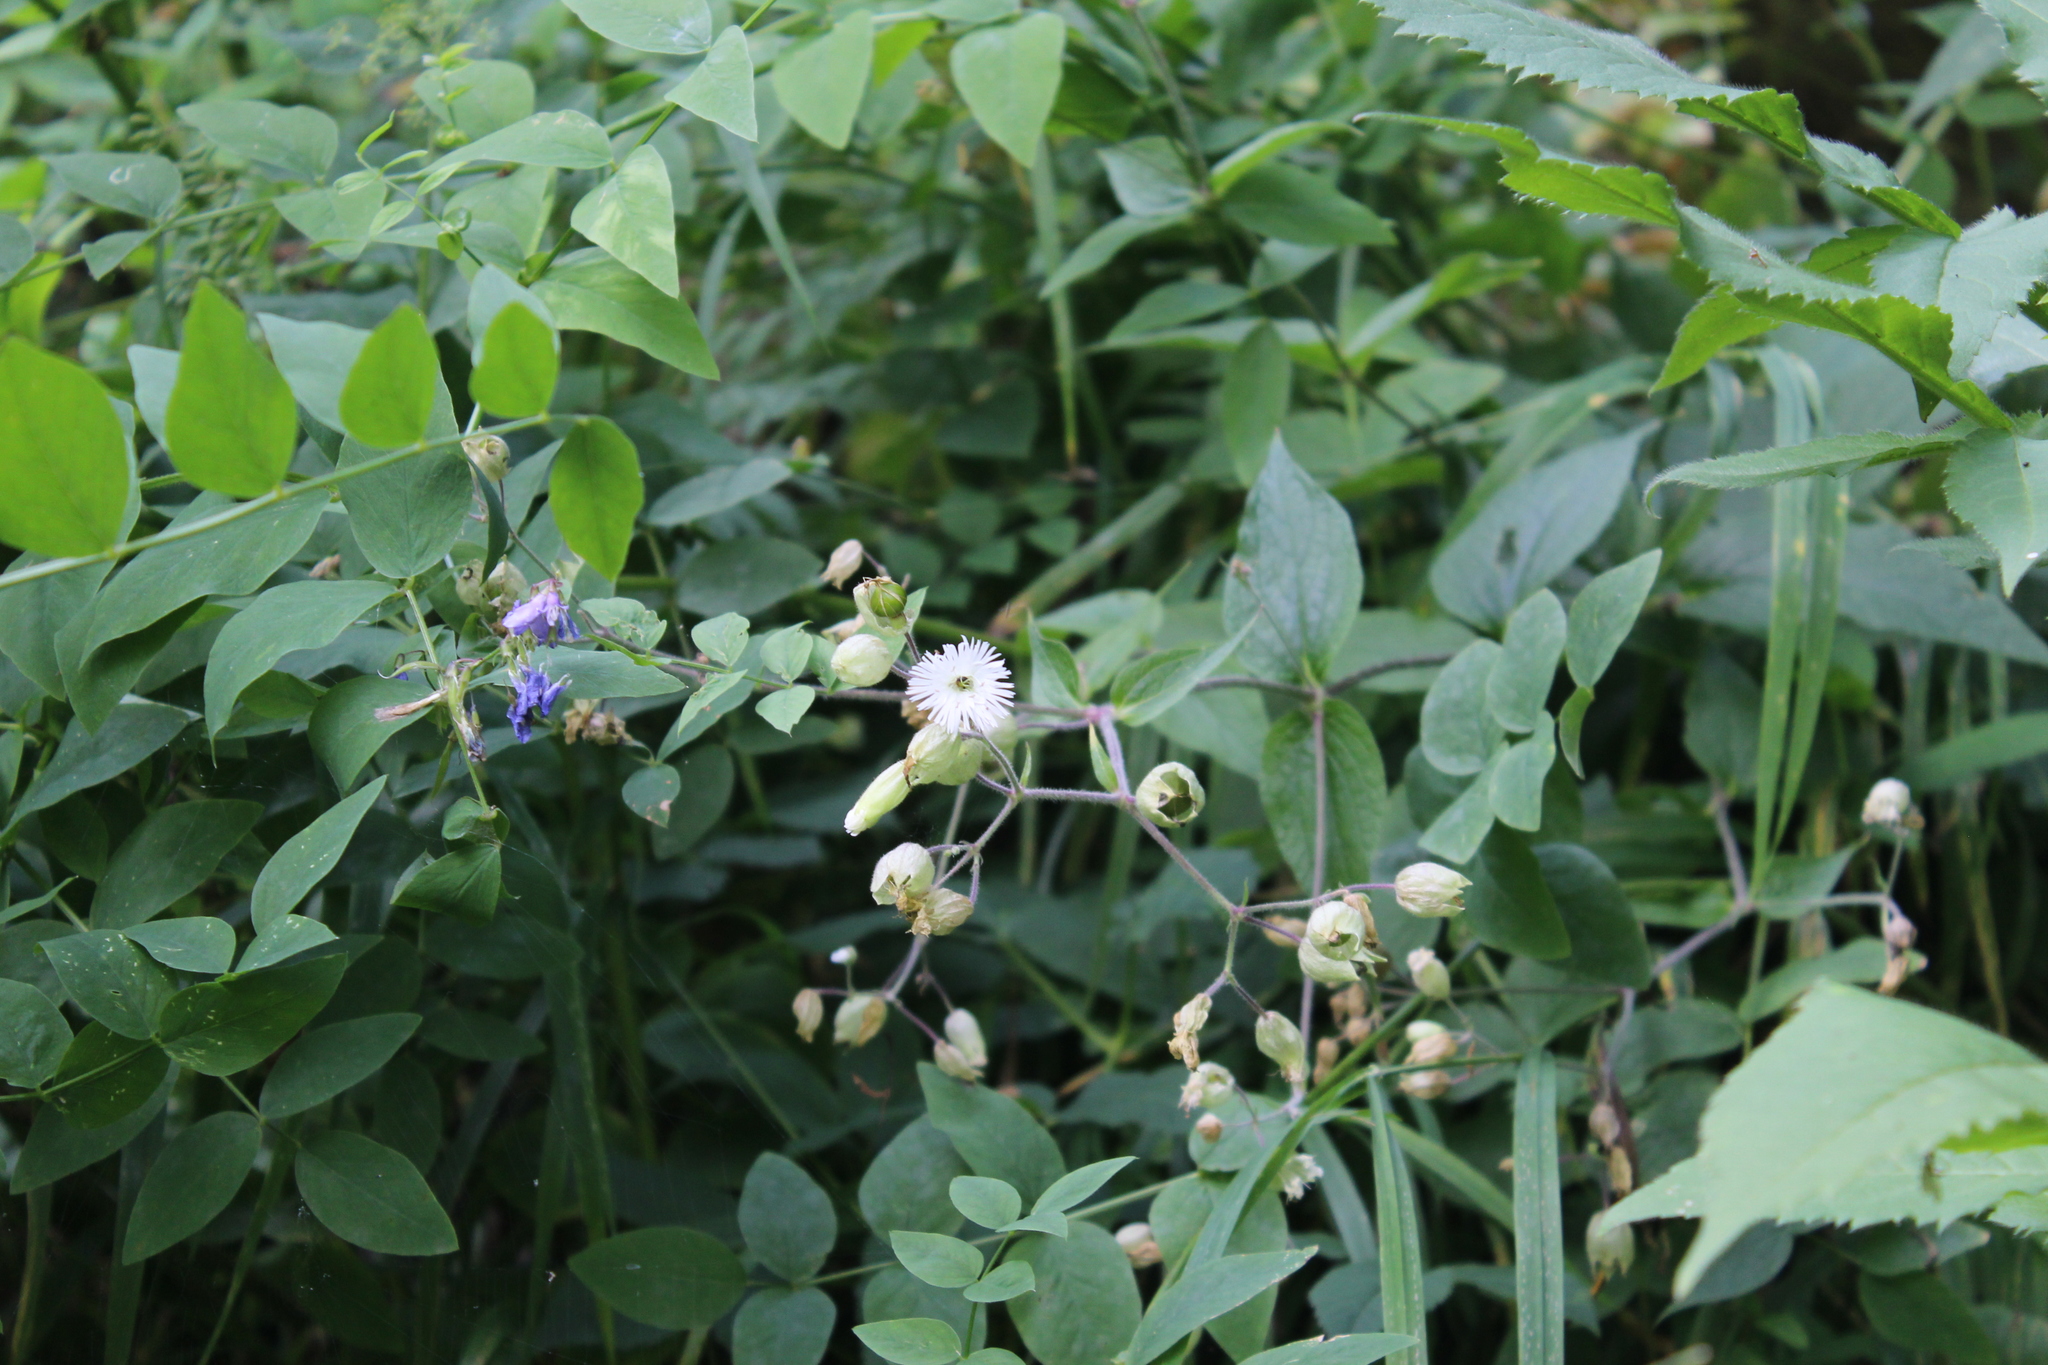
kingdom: Plantae
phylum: Tracheophyta
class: Magnoliopsida
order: Caryophyllales
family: Caryophyllaceae
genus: Silene
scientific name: Silene
